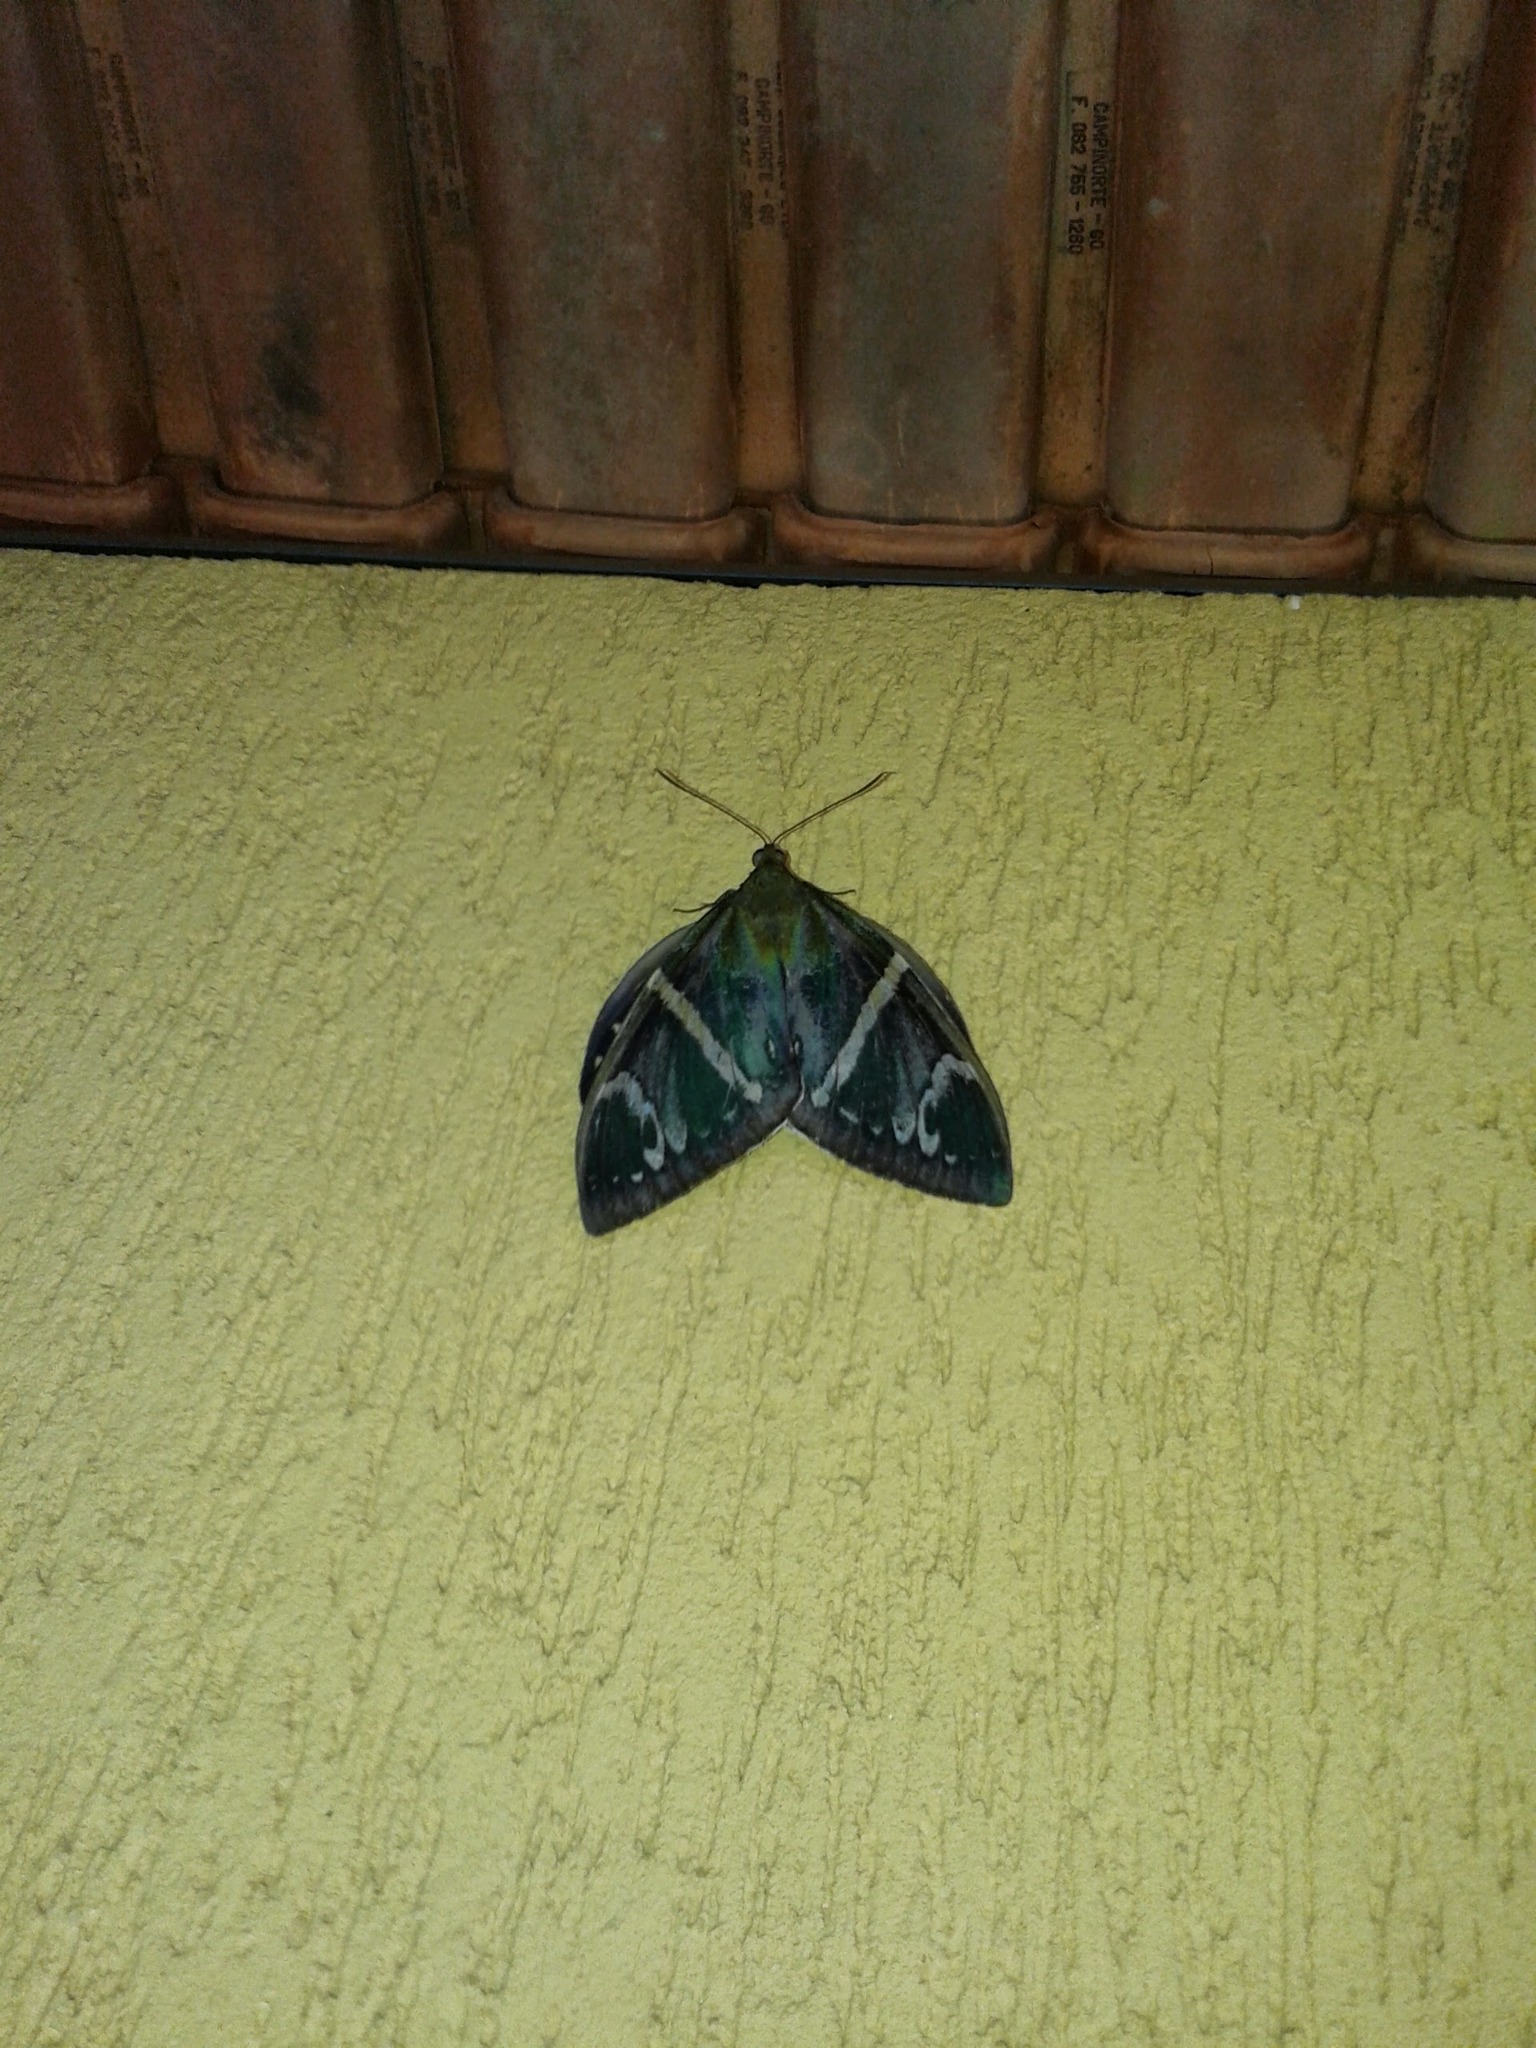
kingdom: Animalia
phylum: Arthropoda
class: Insecta
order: Lepidoptera
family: Castniidae
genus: Eupalamides
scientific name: Eupalamides cyparissias
